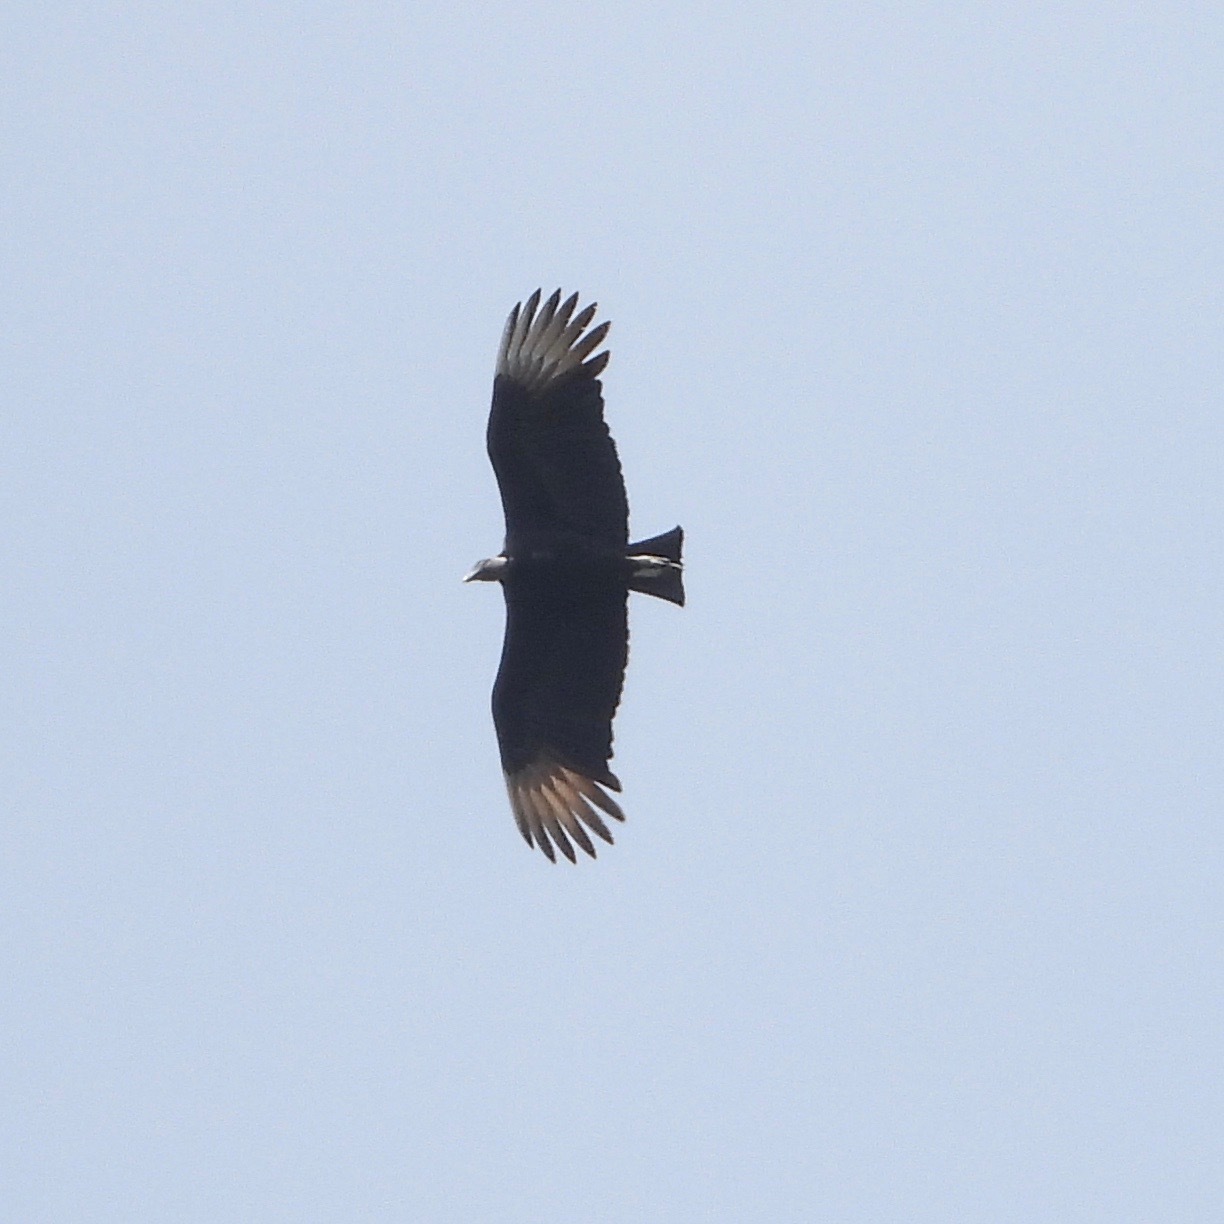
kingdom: Animalia
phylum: Chordata
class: Aves
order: Accipitriformes
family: Cathartidae
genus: Coragyps
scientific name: Coragyps atratus
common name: Black vulture
